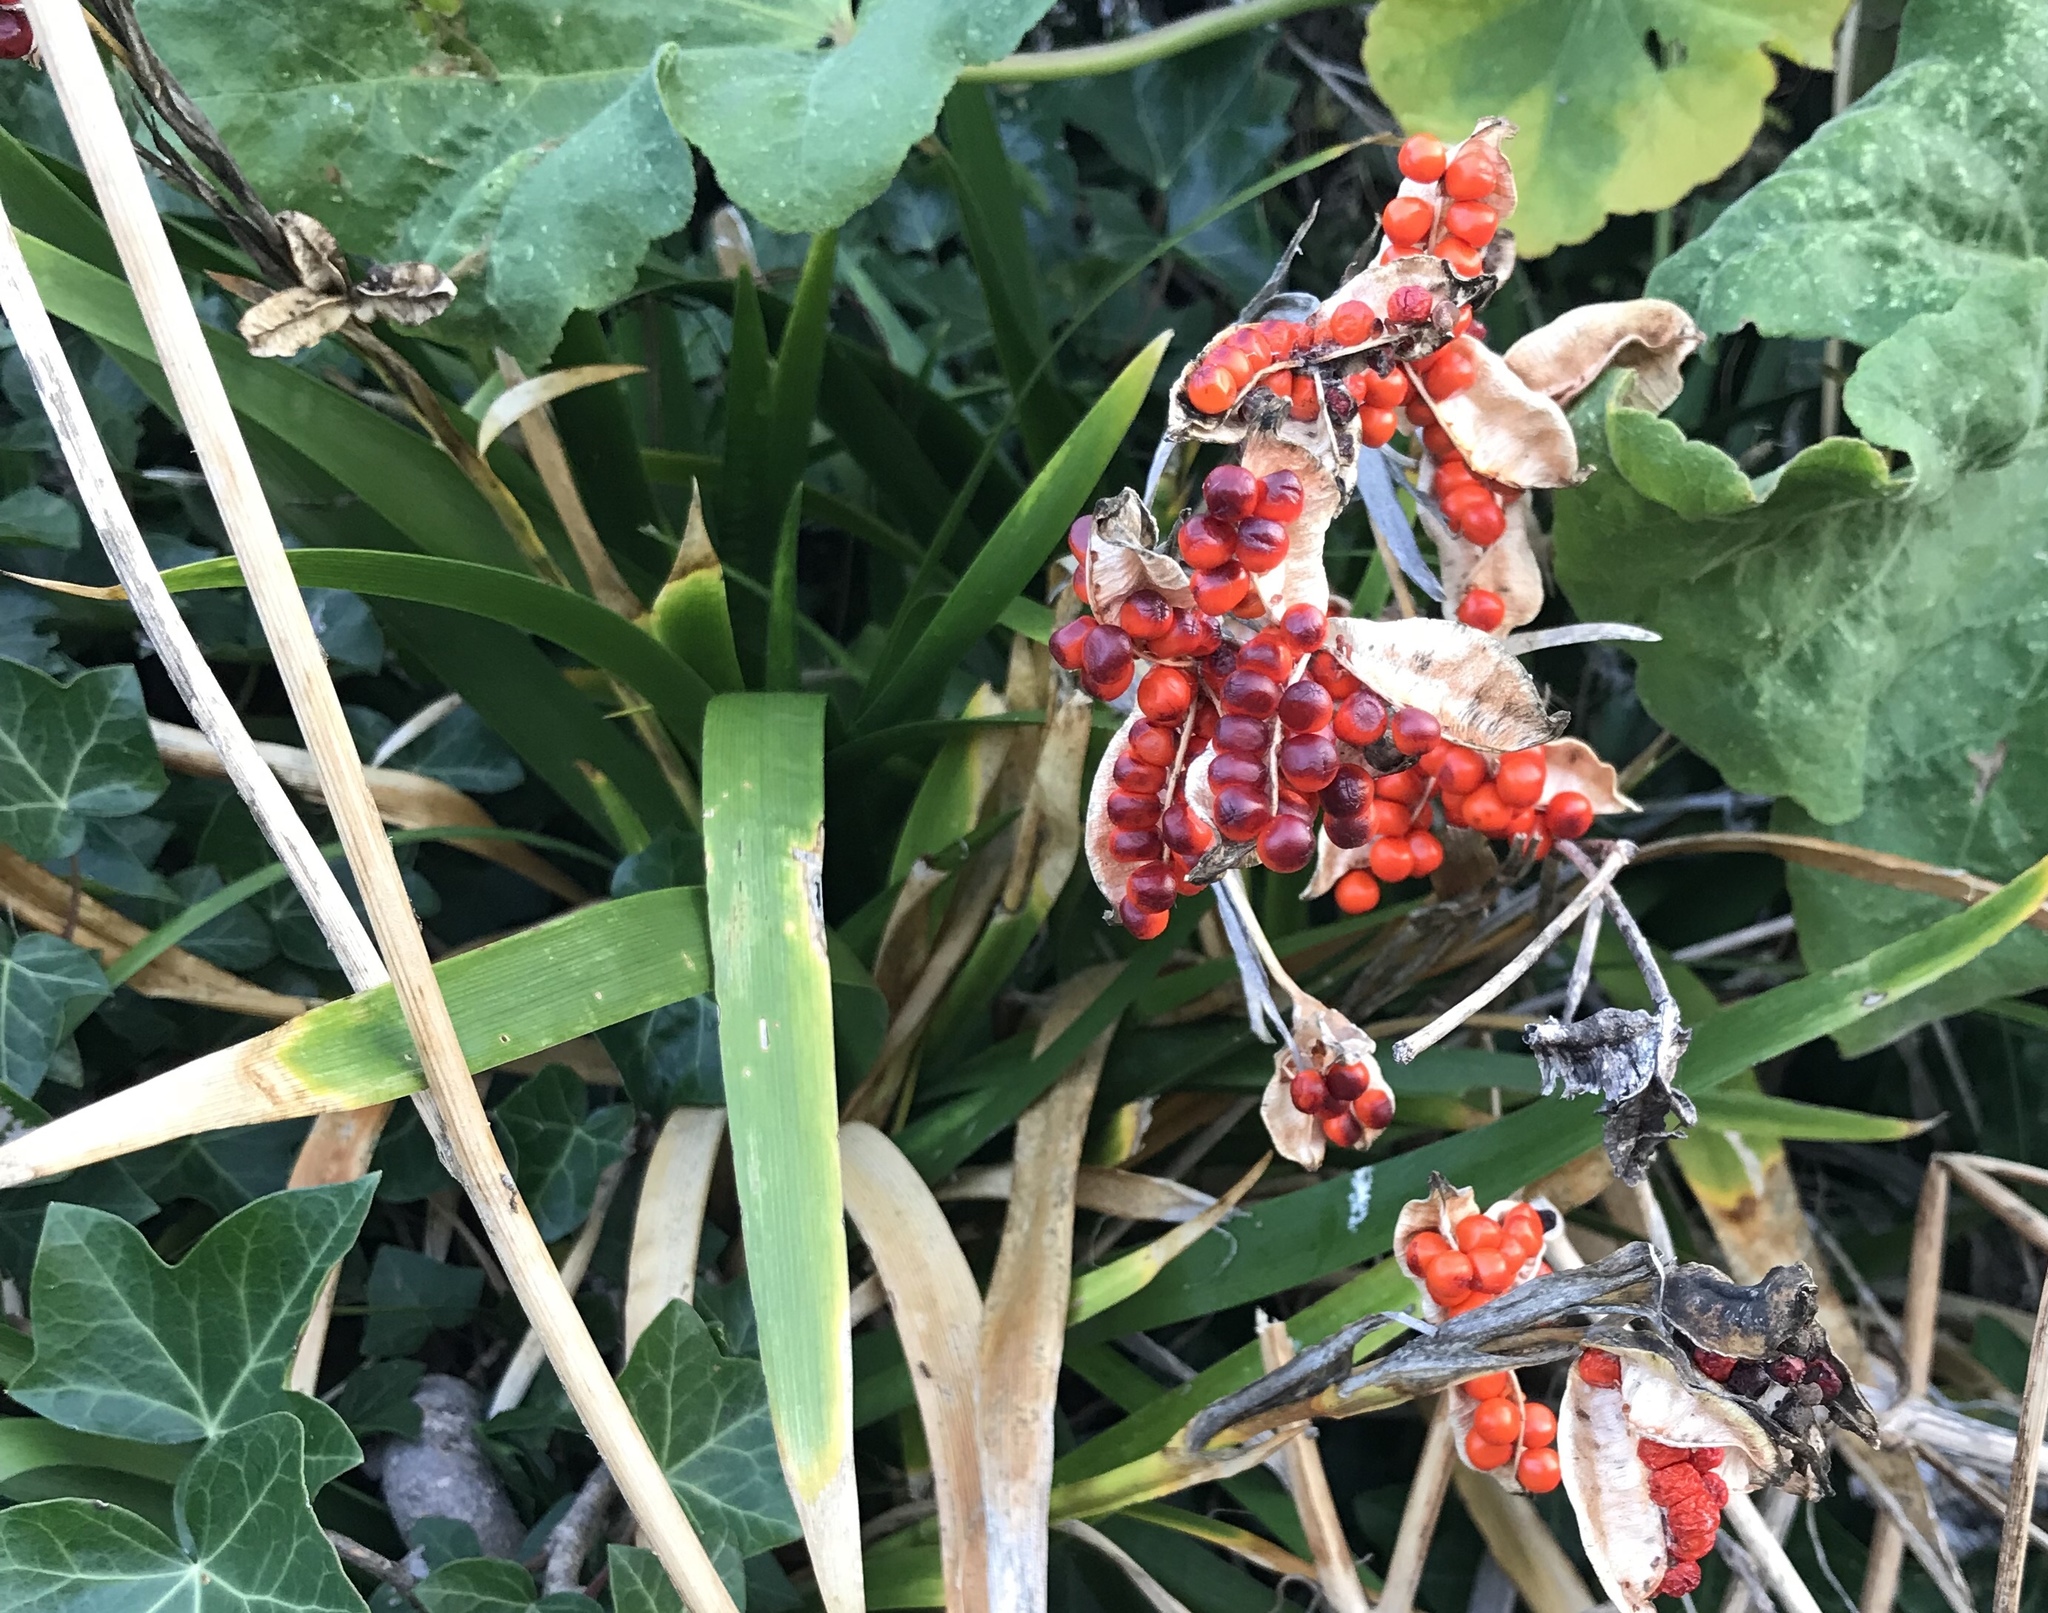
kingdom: Plantae
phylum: Tracheophyta
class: Liliopsida
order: Asparagales
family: Iridaceae
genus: Iris
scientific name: Iris foetidissima
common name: Stinking iris
